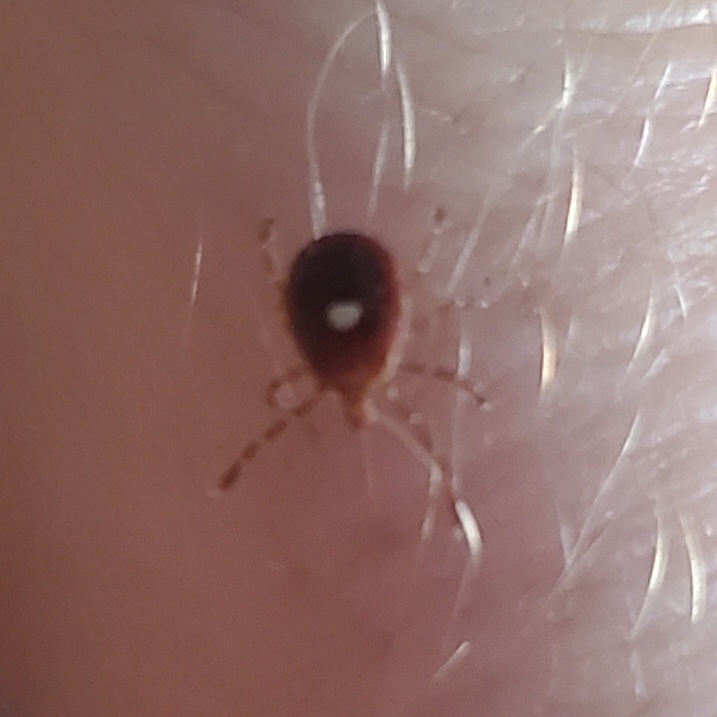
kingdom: Animalia
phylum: Arthropoda
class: Arachnida
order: Ixodida
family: Ixodidae
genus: Amblyomma
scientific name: Amblyomma americanum
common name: Lone star tick
